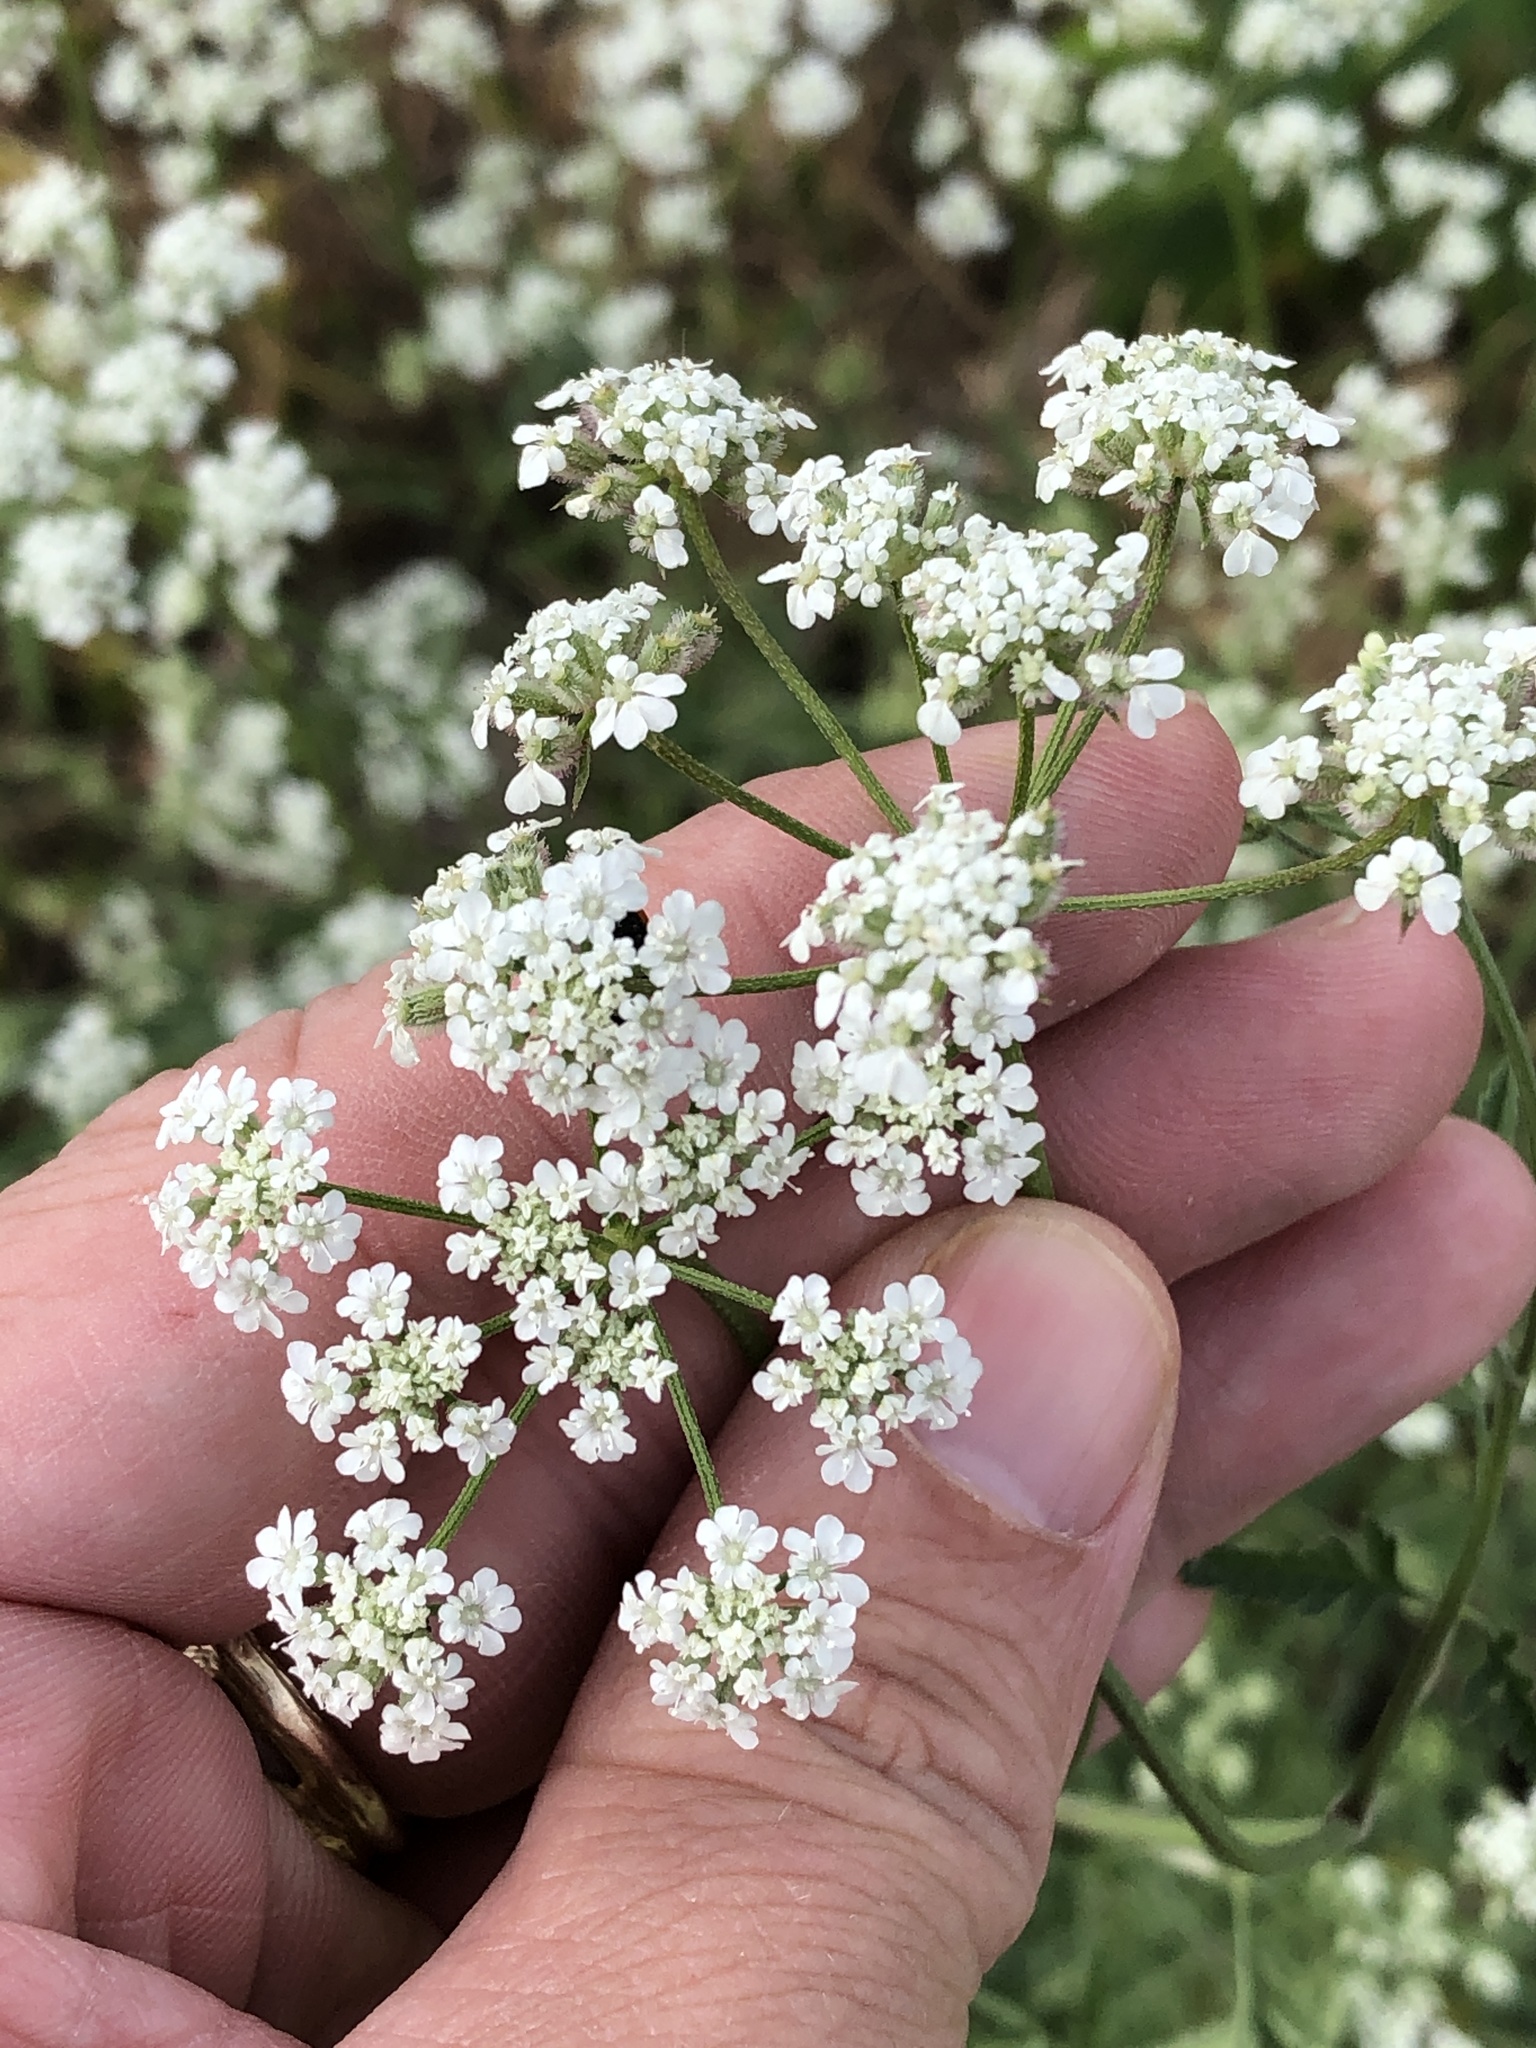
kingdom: Plantae
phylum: Tracheophyta
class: Magnoliopsida
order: Apiales
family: Apiaceae
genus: Torilis
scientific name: Torilis arvensis
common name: Spreading hedge-parsley
